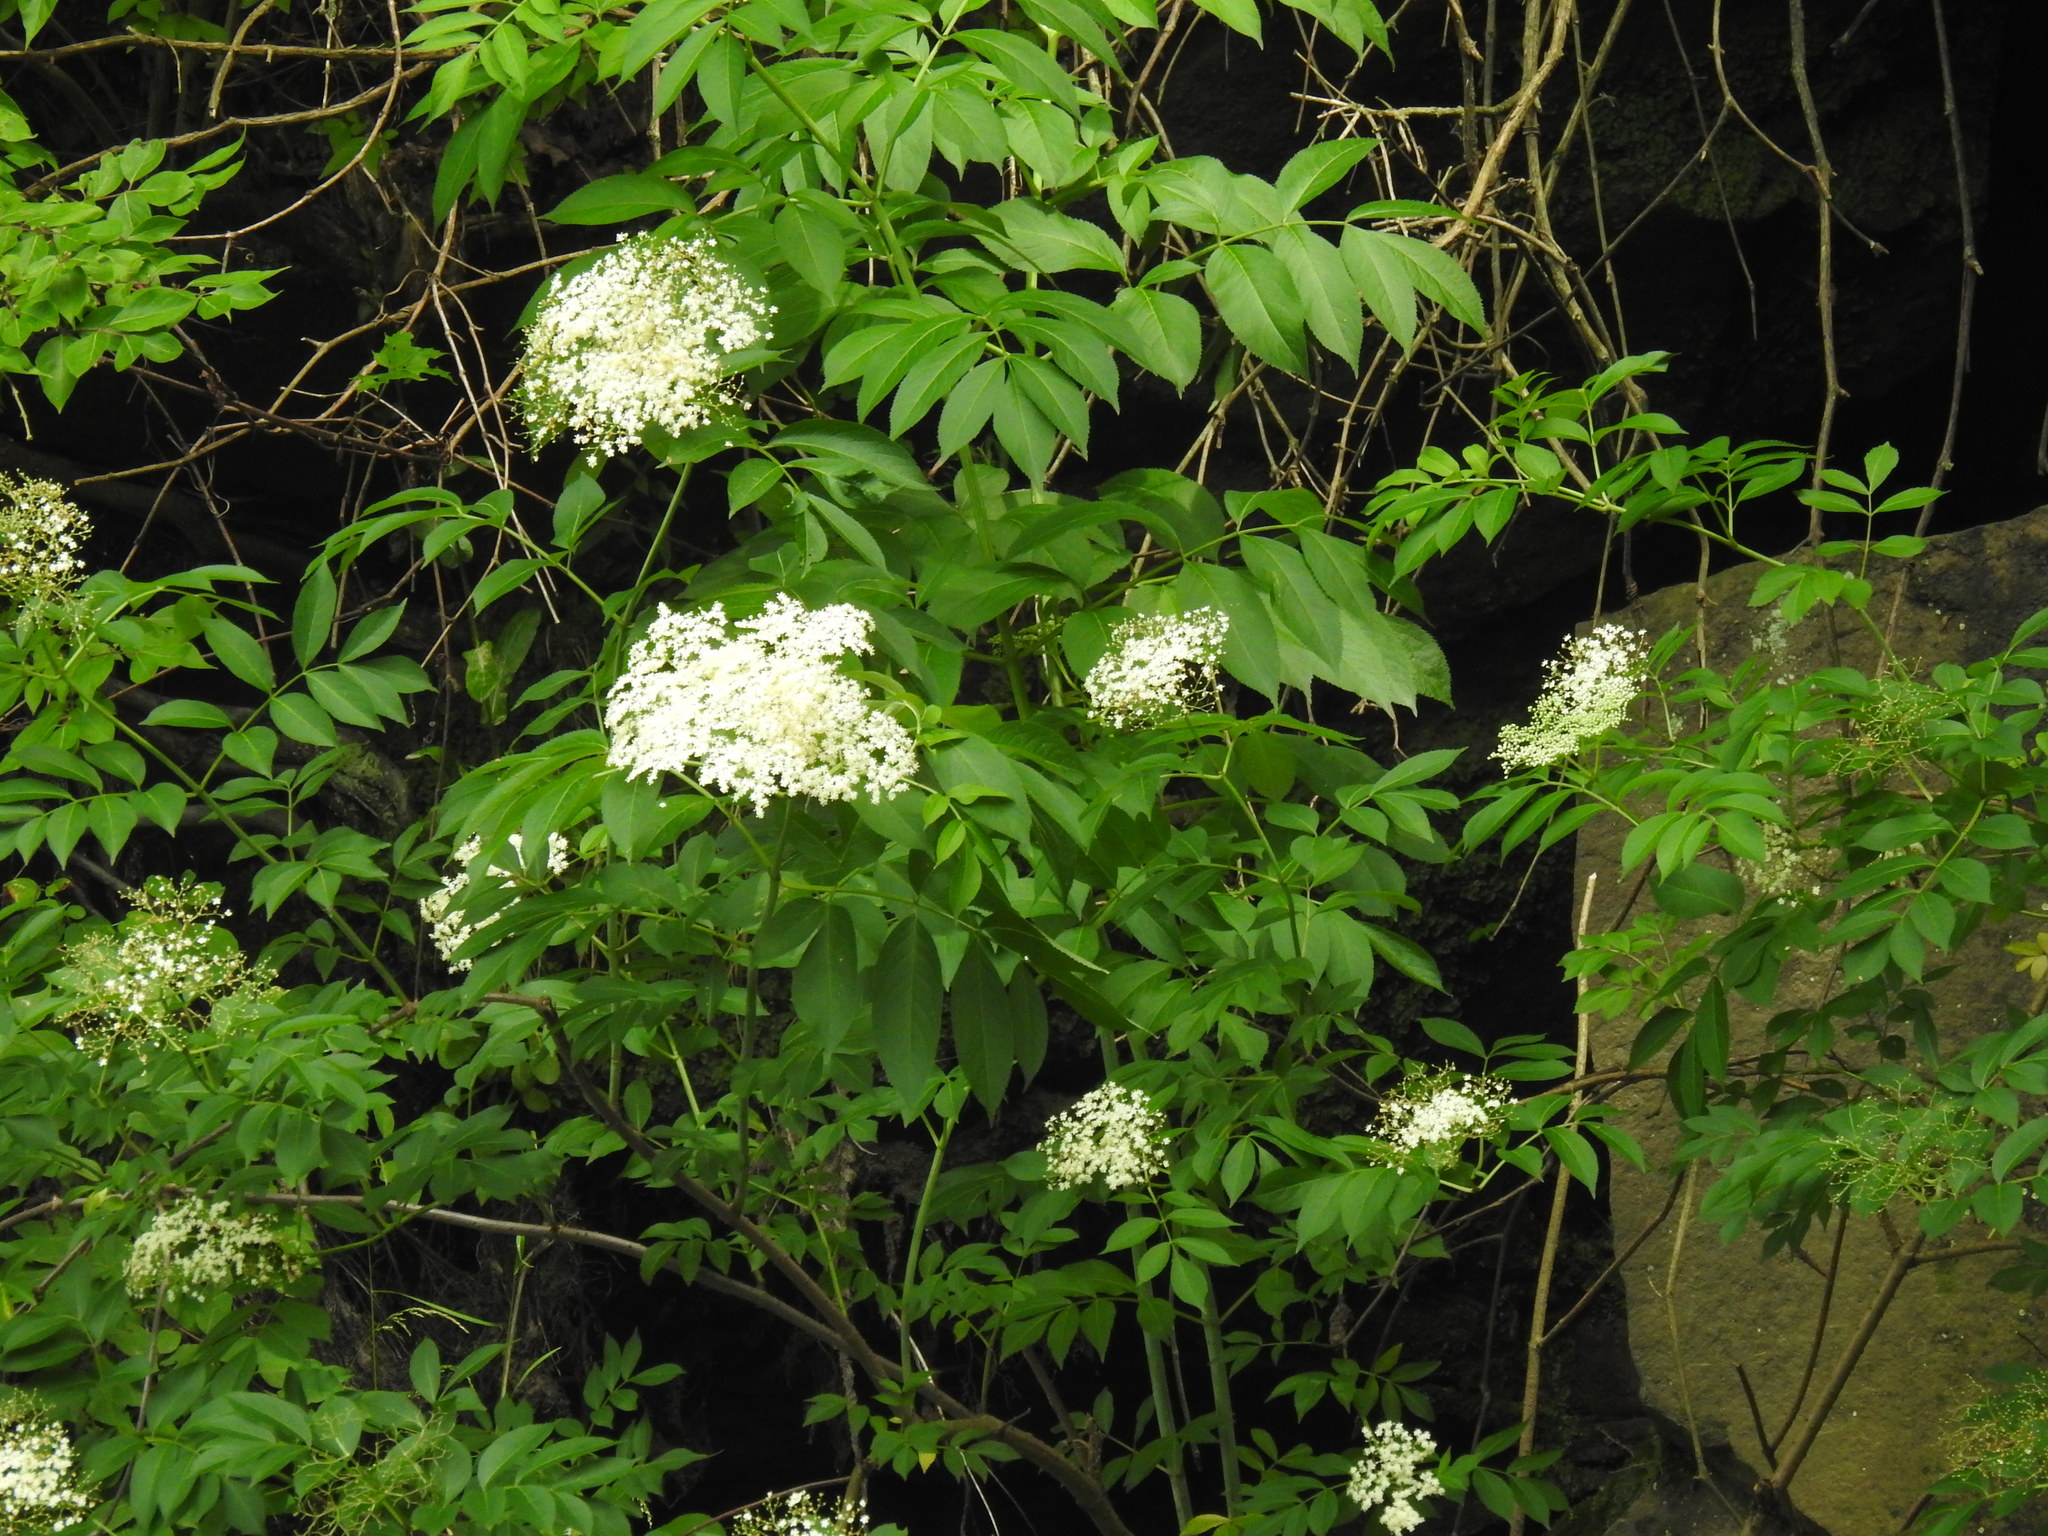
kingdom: Plantae
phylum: Tracheophyta
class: Magnoliopsida
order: Dipsacales
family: Viburnaceae
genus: Sambucus
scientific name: Sambucus canadensis
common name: American elder
